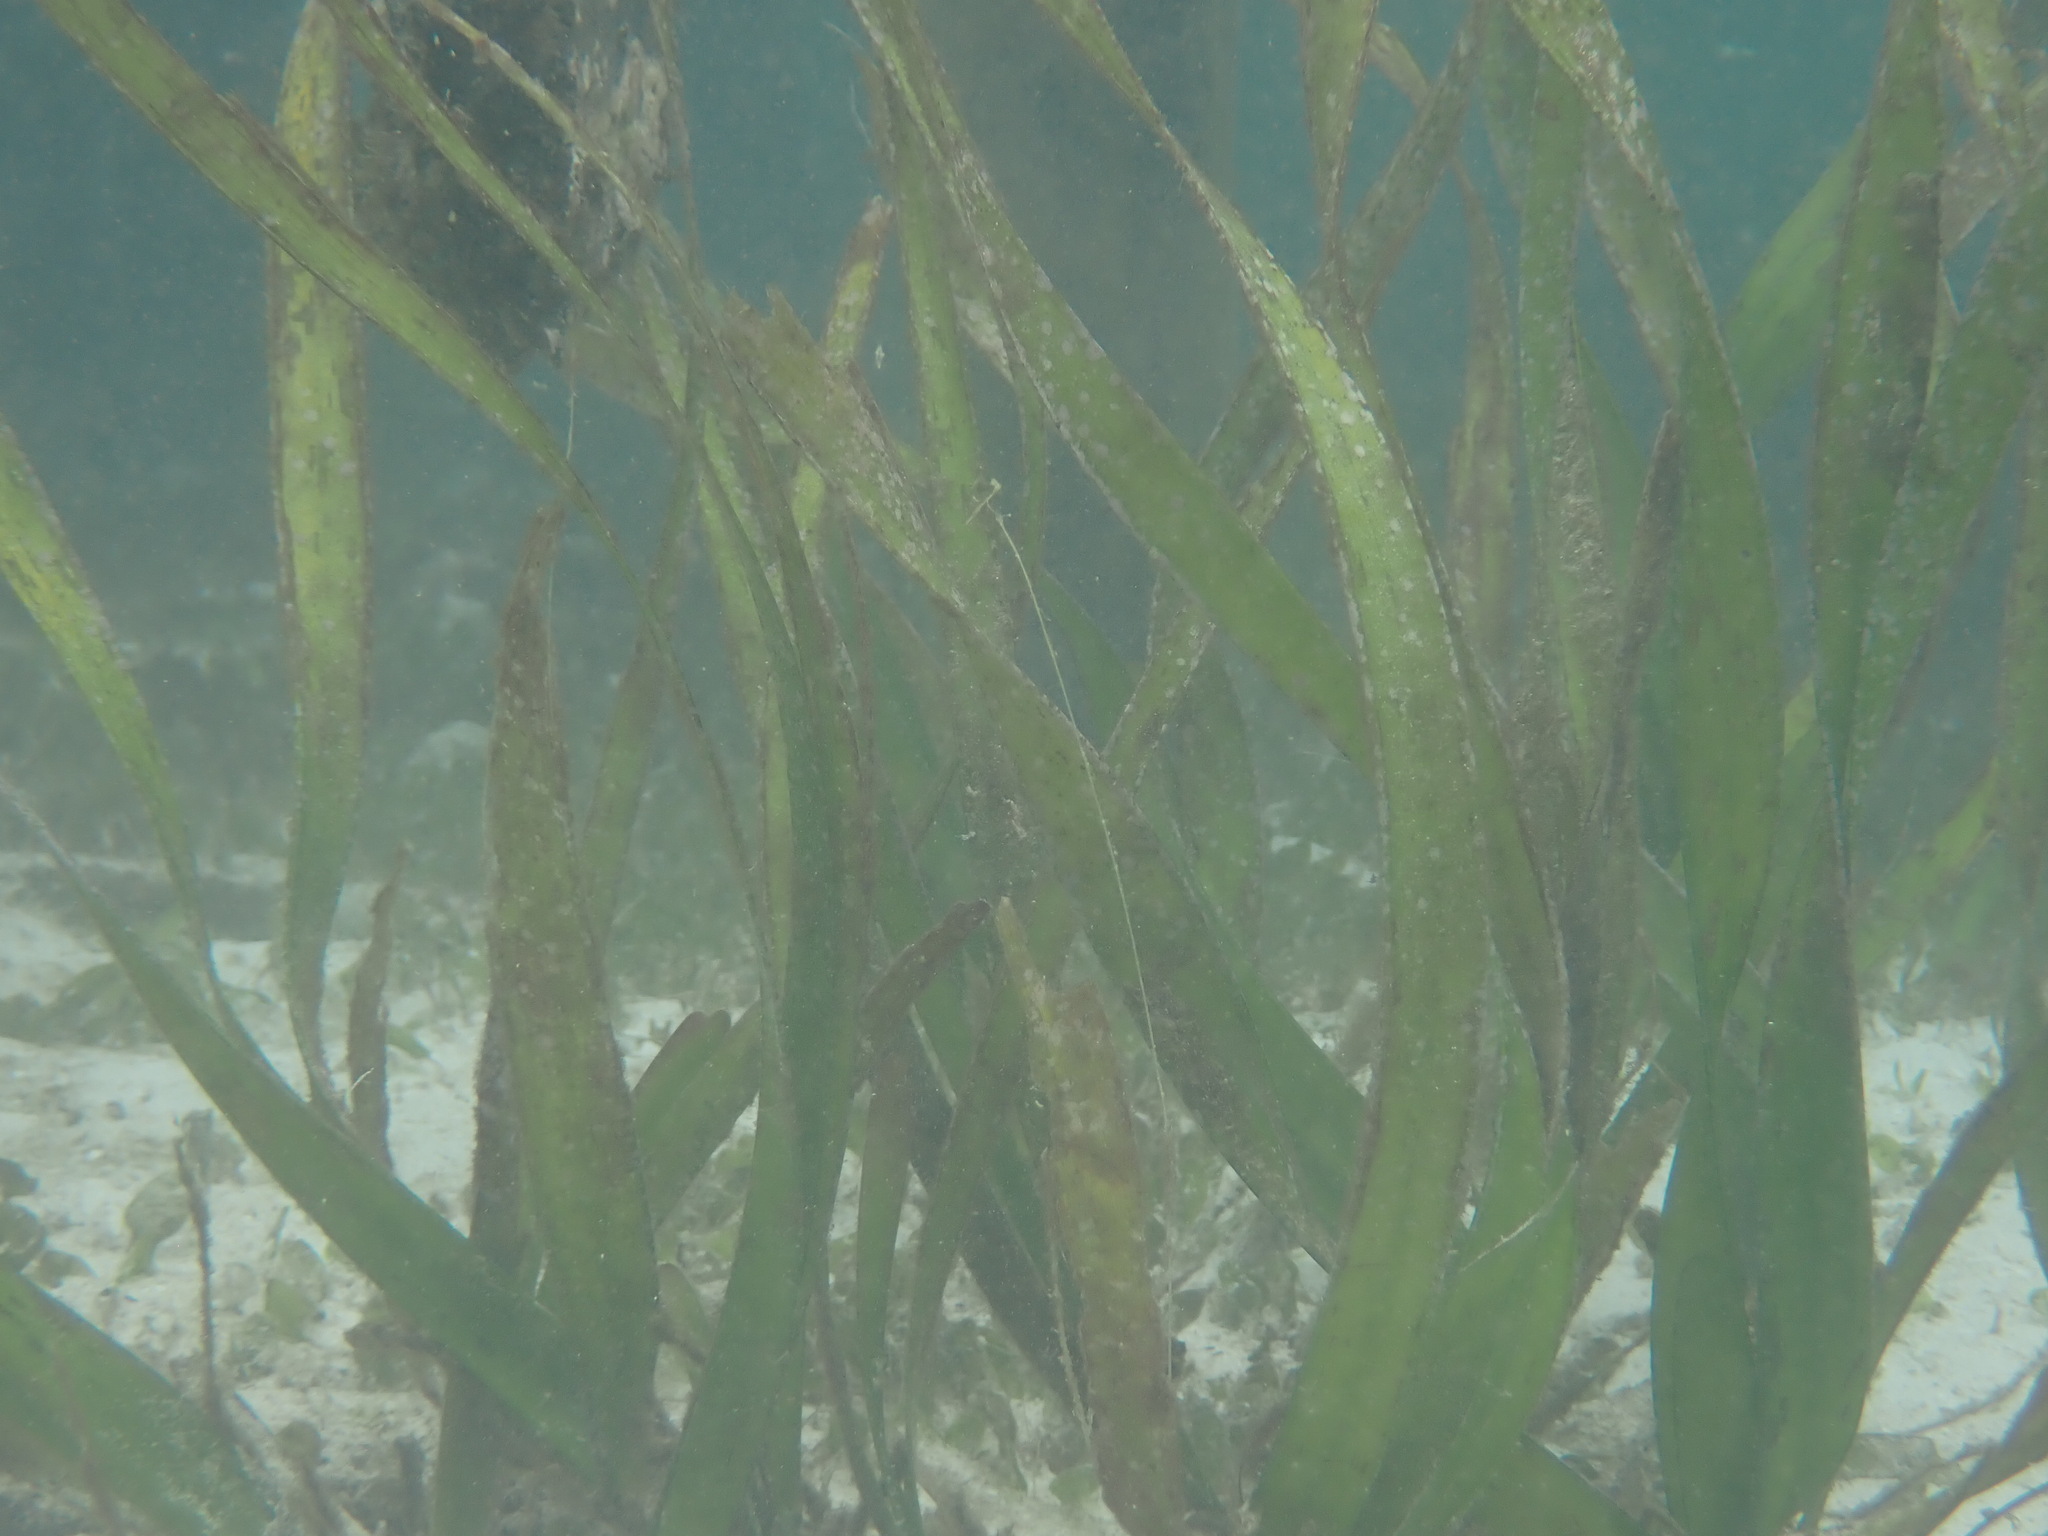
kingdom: Plantae
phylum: Tracheophyta
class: Liliopsida
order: Alismatales
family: Hydrocharitaceae
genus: Enhalus
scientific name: Enhalus acoroides
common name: Species code: ea
